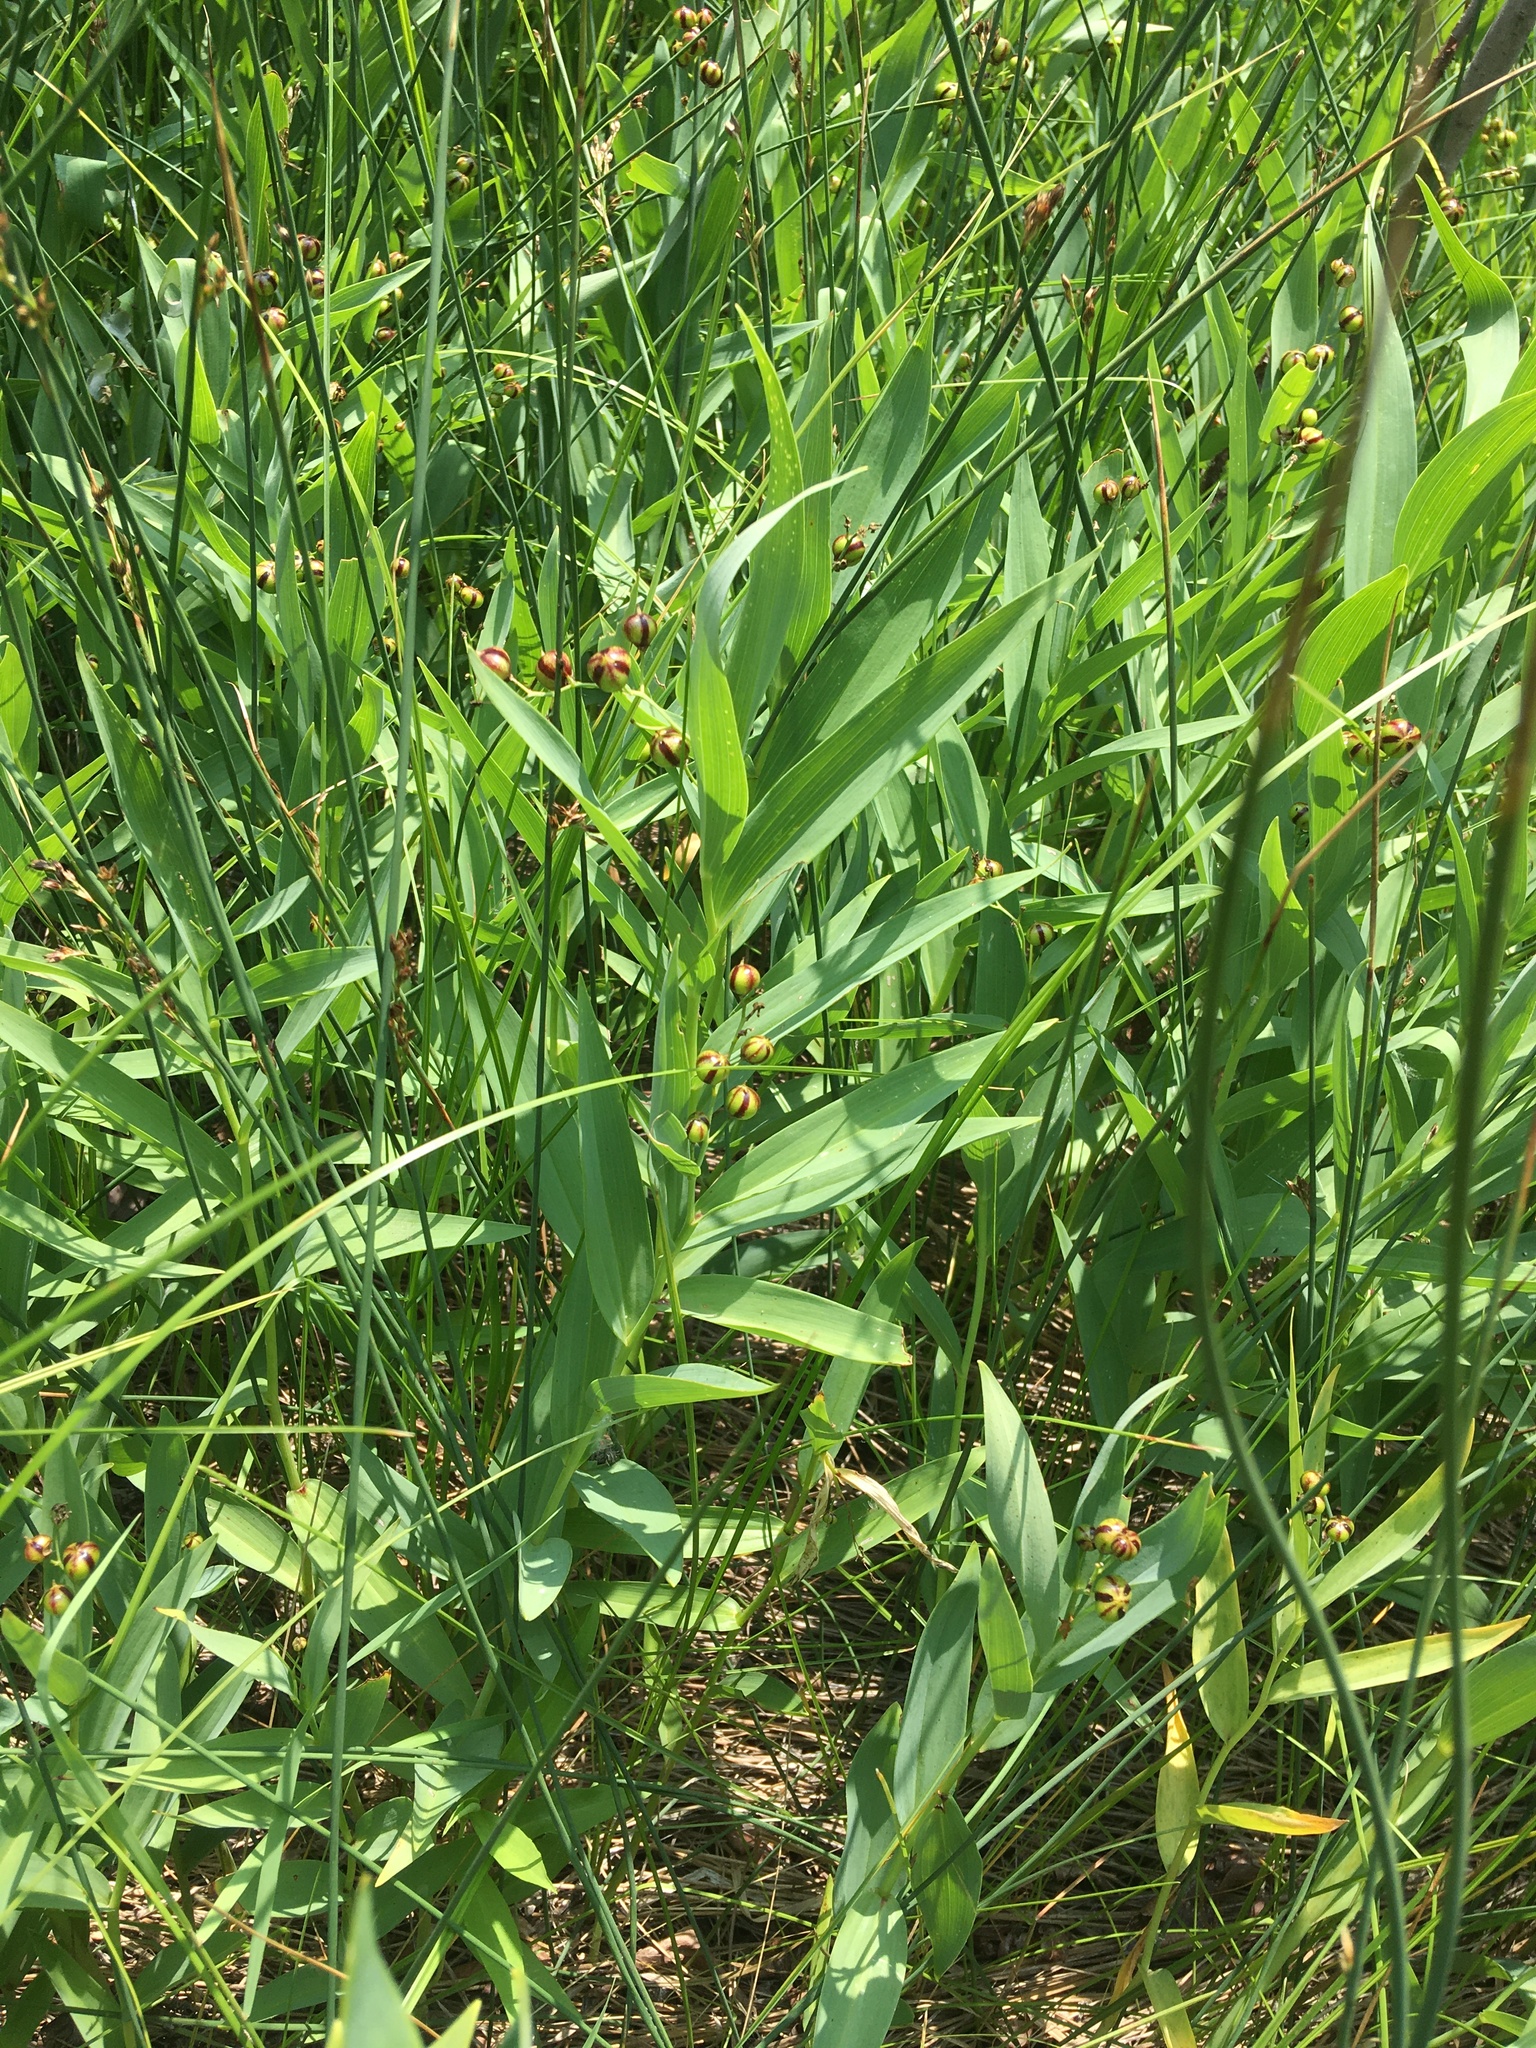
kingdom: Plantae
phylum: Tracheophyta
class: Liliopsida
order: Asparagales
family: Asparagaceae
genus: Maianthemum
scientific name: Maianthemum stellatum
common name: Little false solomon's seal
